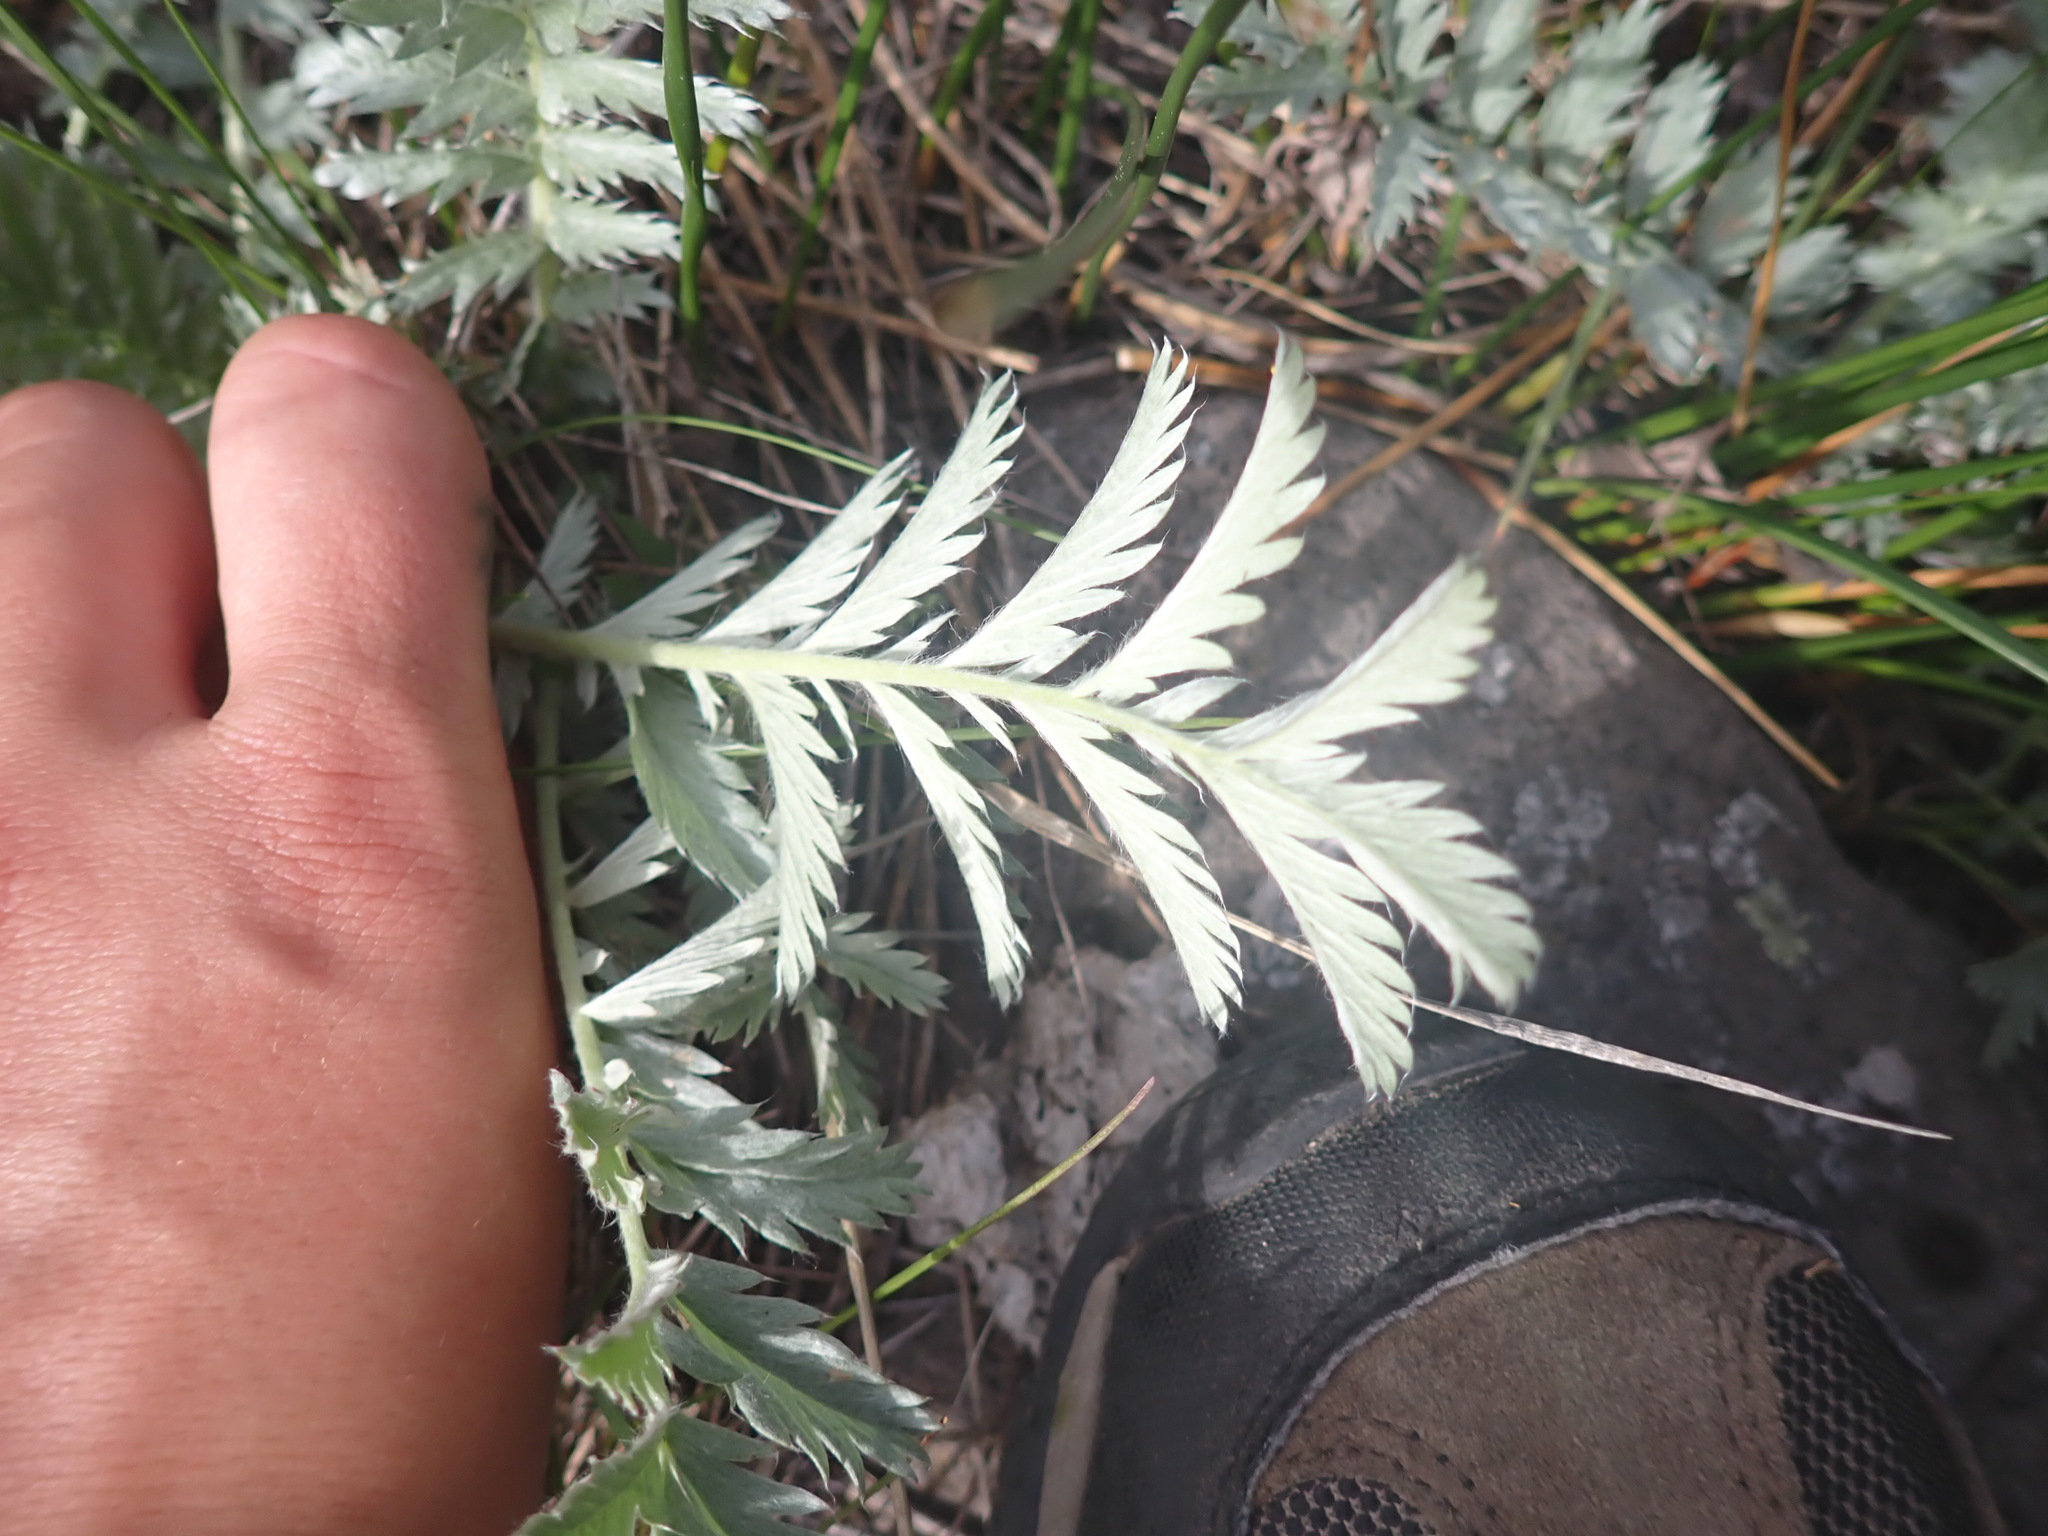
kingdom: Plantae
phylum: Tracheophyta
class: Magnoliopsida
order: Rosales
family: Rosaceae
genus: Argentina
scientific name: Argentina anserina
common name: Common silverweed
